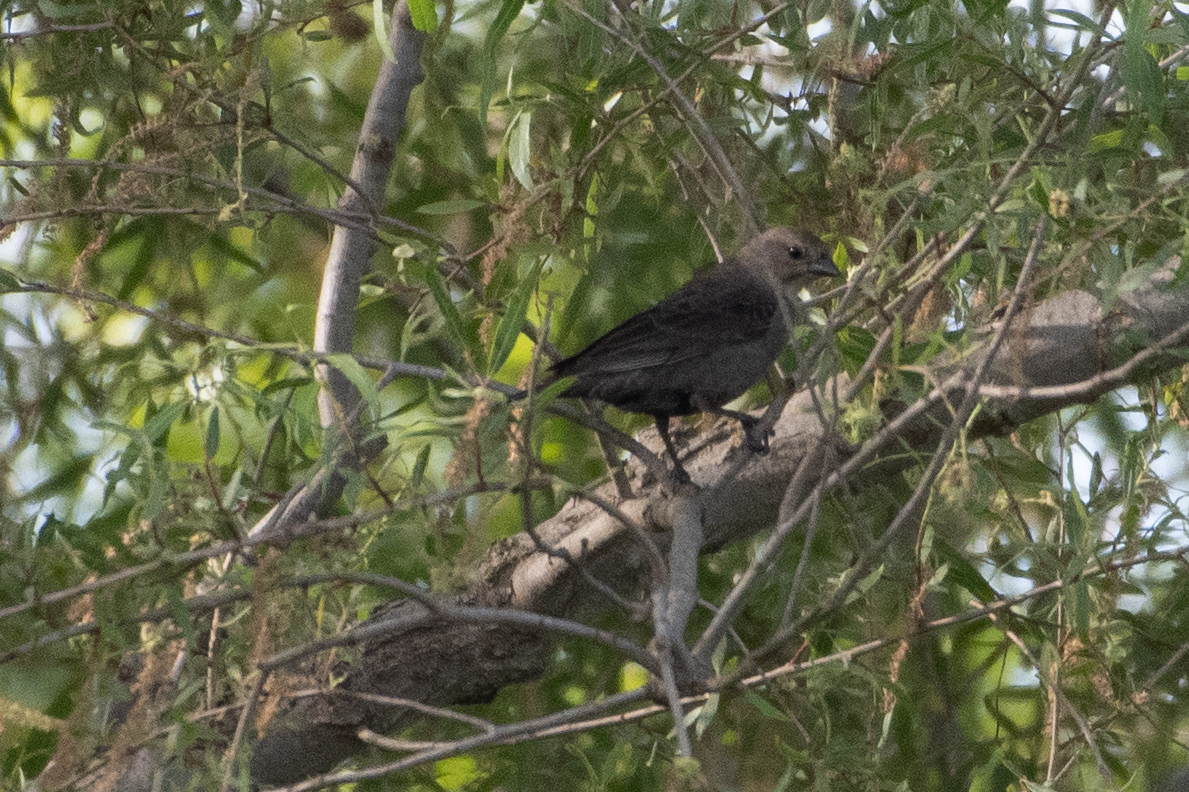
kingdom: Animalia
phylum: Chordata
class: Aves
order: Passeriformes
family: Icteridae
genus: Molothrus
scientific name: Molothrus ater
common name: Brown-headed cowbird
